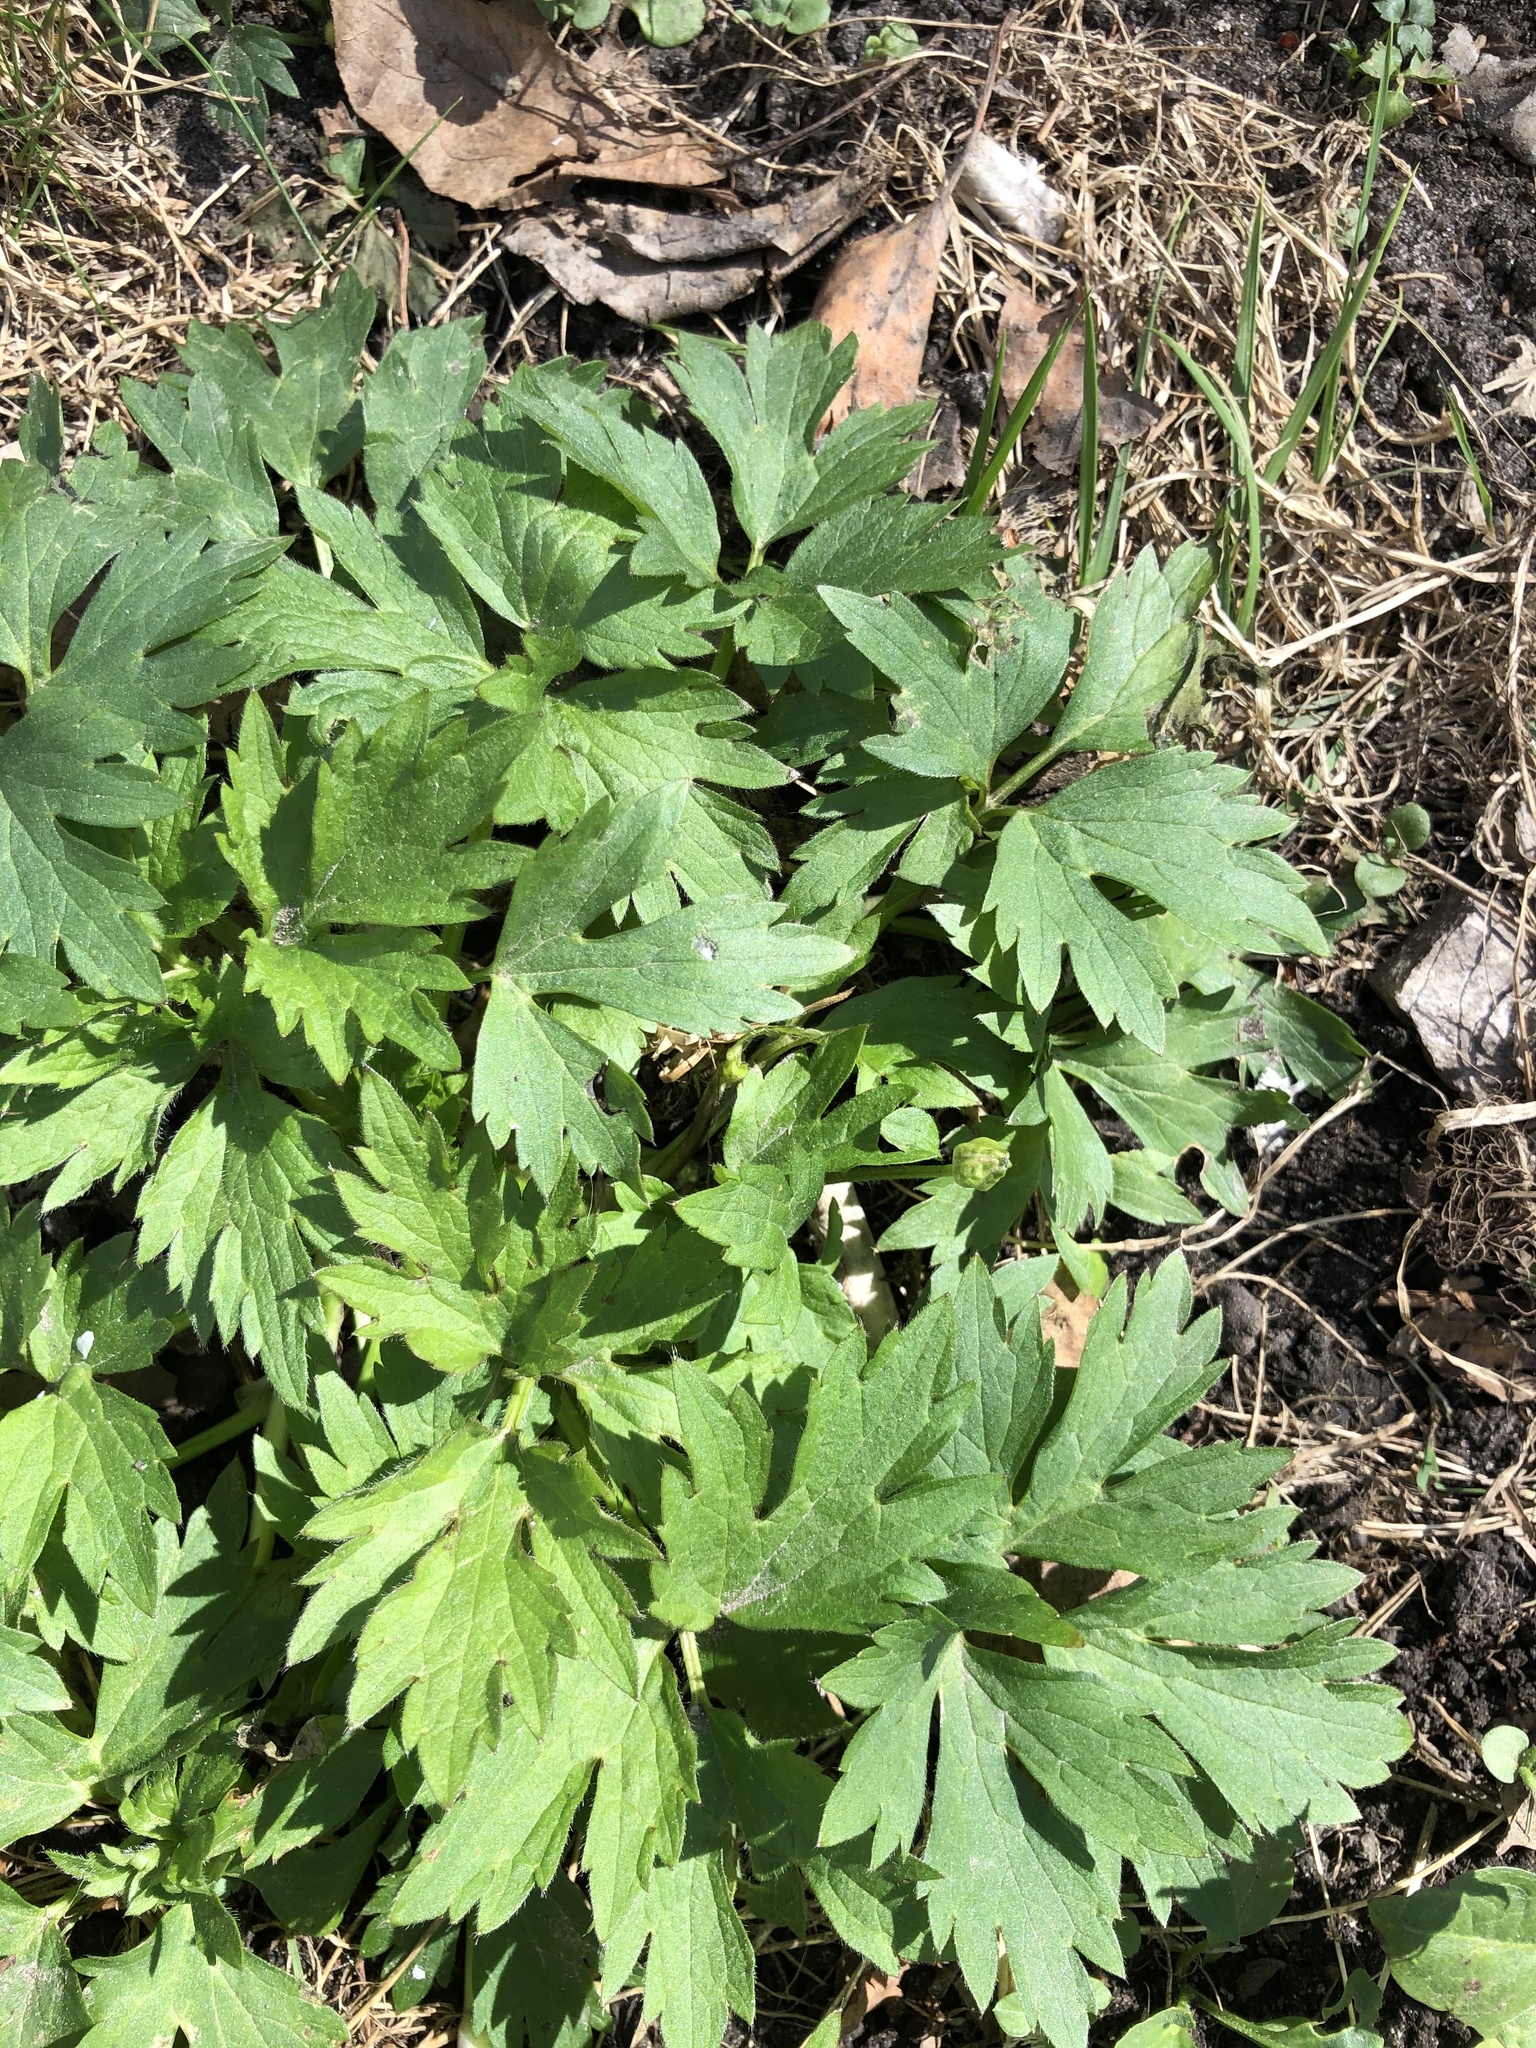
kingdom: Plantae
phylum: Tracheophyta
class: Magnoliopsida
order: Ranunculales
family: Ranunculaceae
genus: Ranunculus
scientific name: Ranunculus repens
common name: Creeping buttercup
